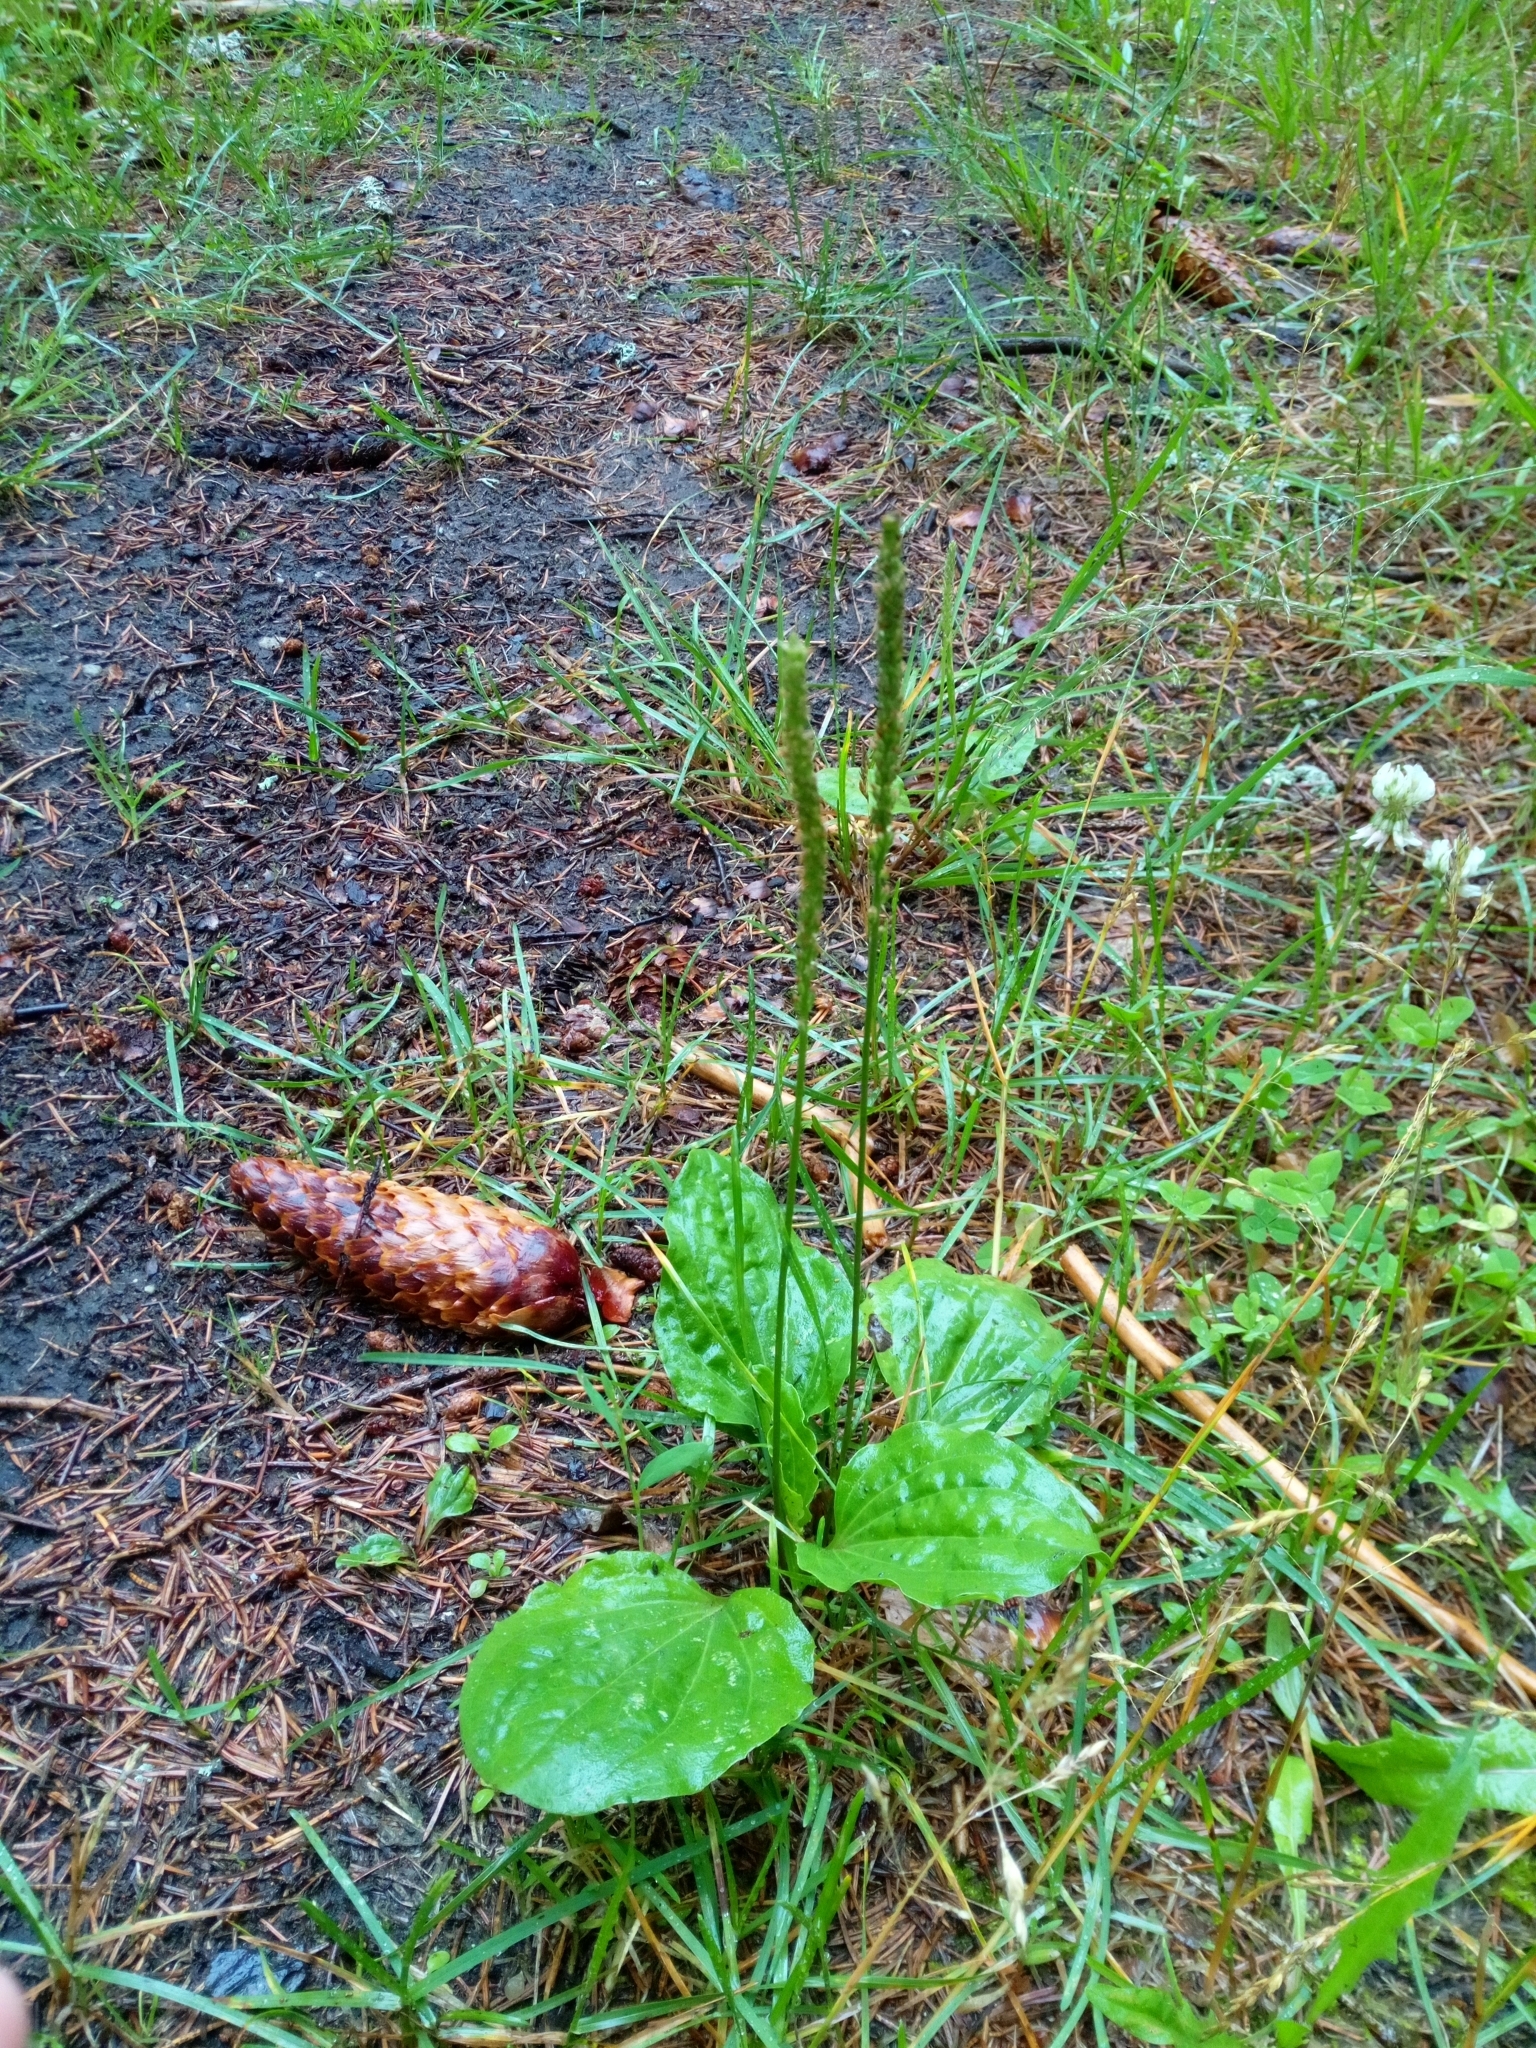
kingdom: Plantae
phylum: Tracheophyta
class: Magnoliopsida
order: Lamiales
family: Plantaginaceae
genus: Plantago
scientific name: Plantago major
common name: Common plantain
